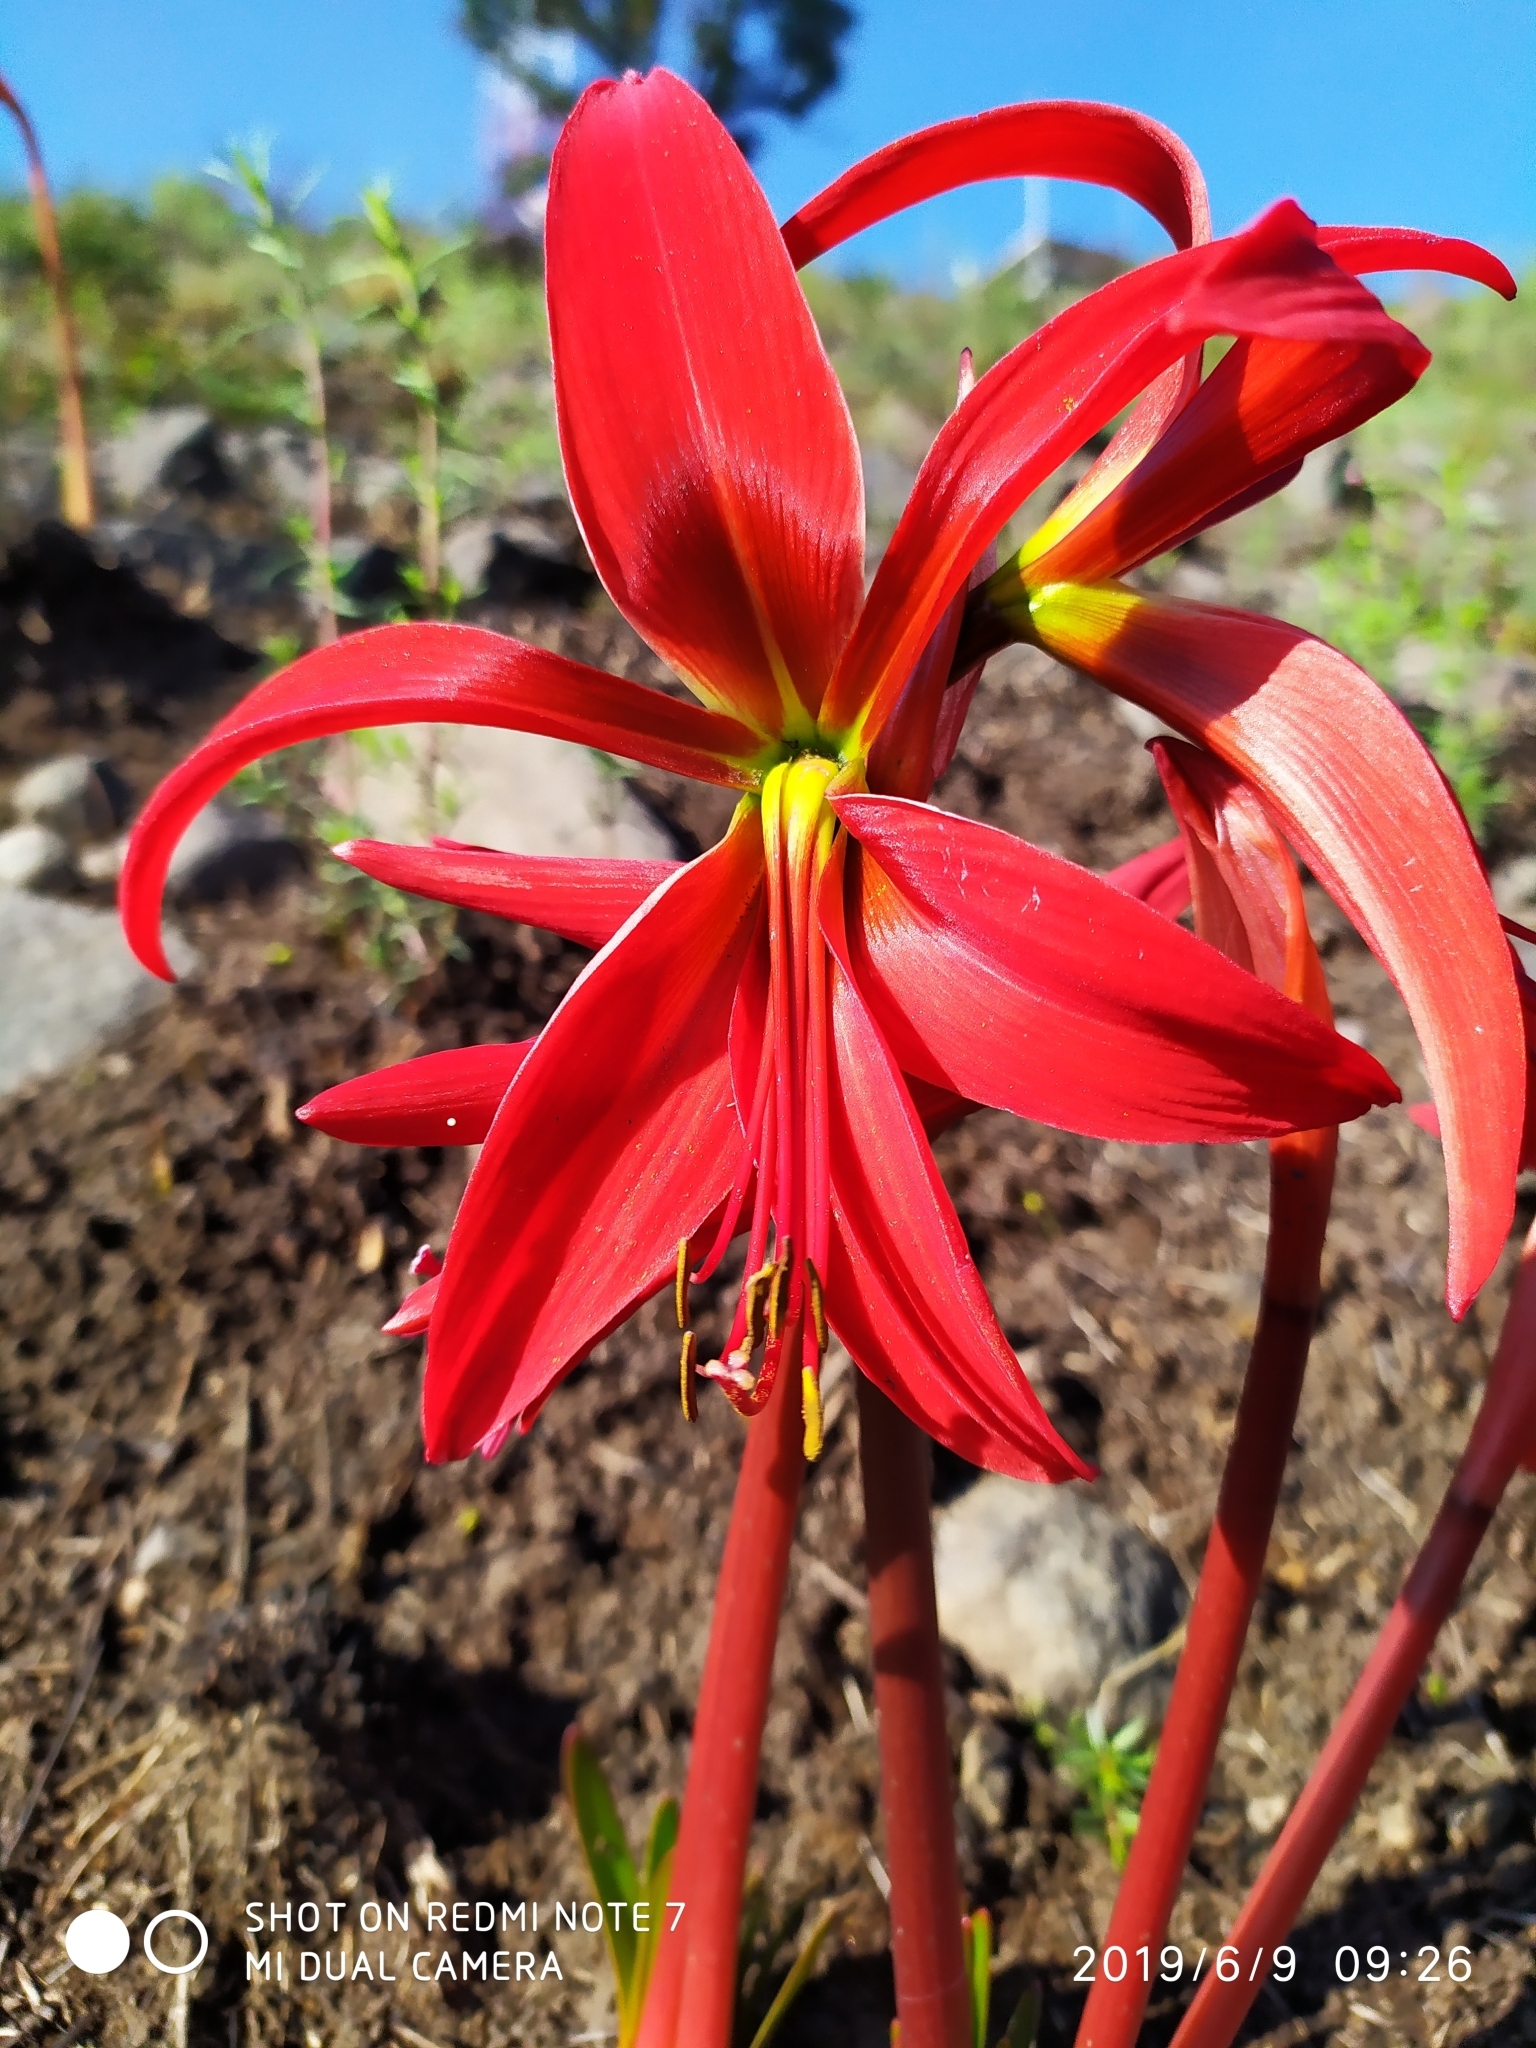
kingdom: Plantae
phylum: Tracheophyta
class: Liliopsida
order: Asparagales
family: Amaryllidaceae
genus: Sprekelia
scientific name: Sprekelia formosissima
